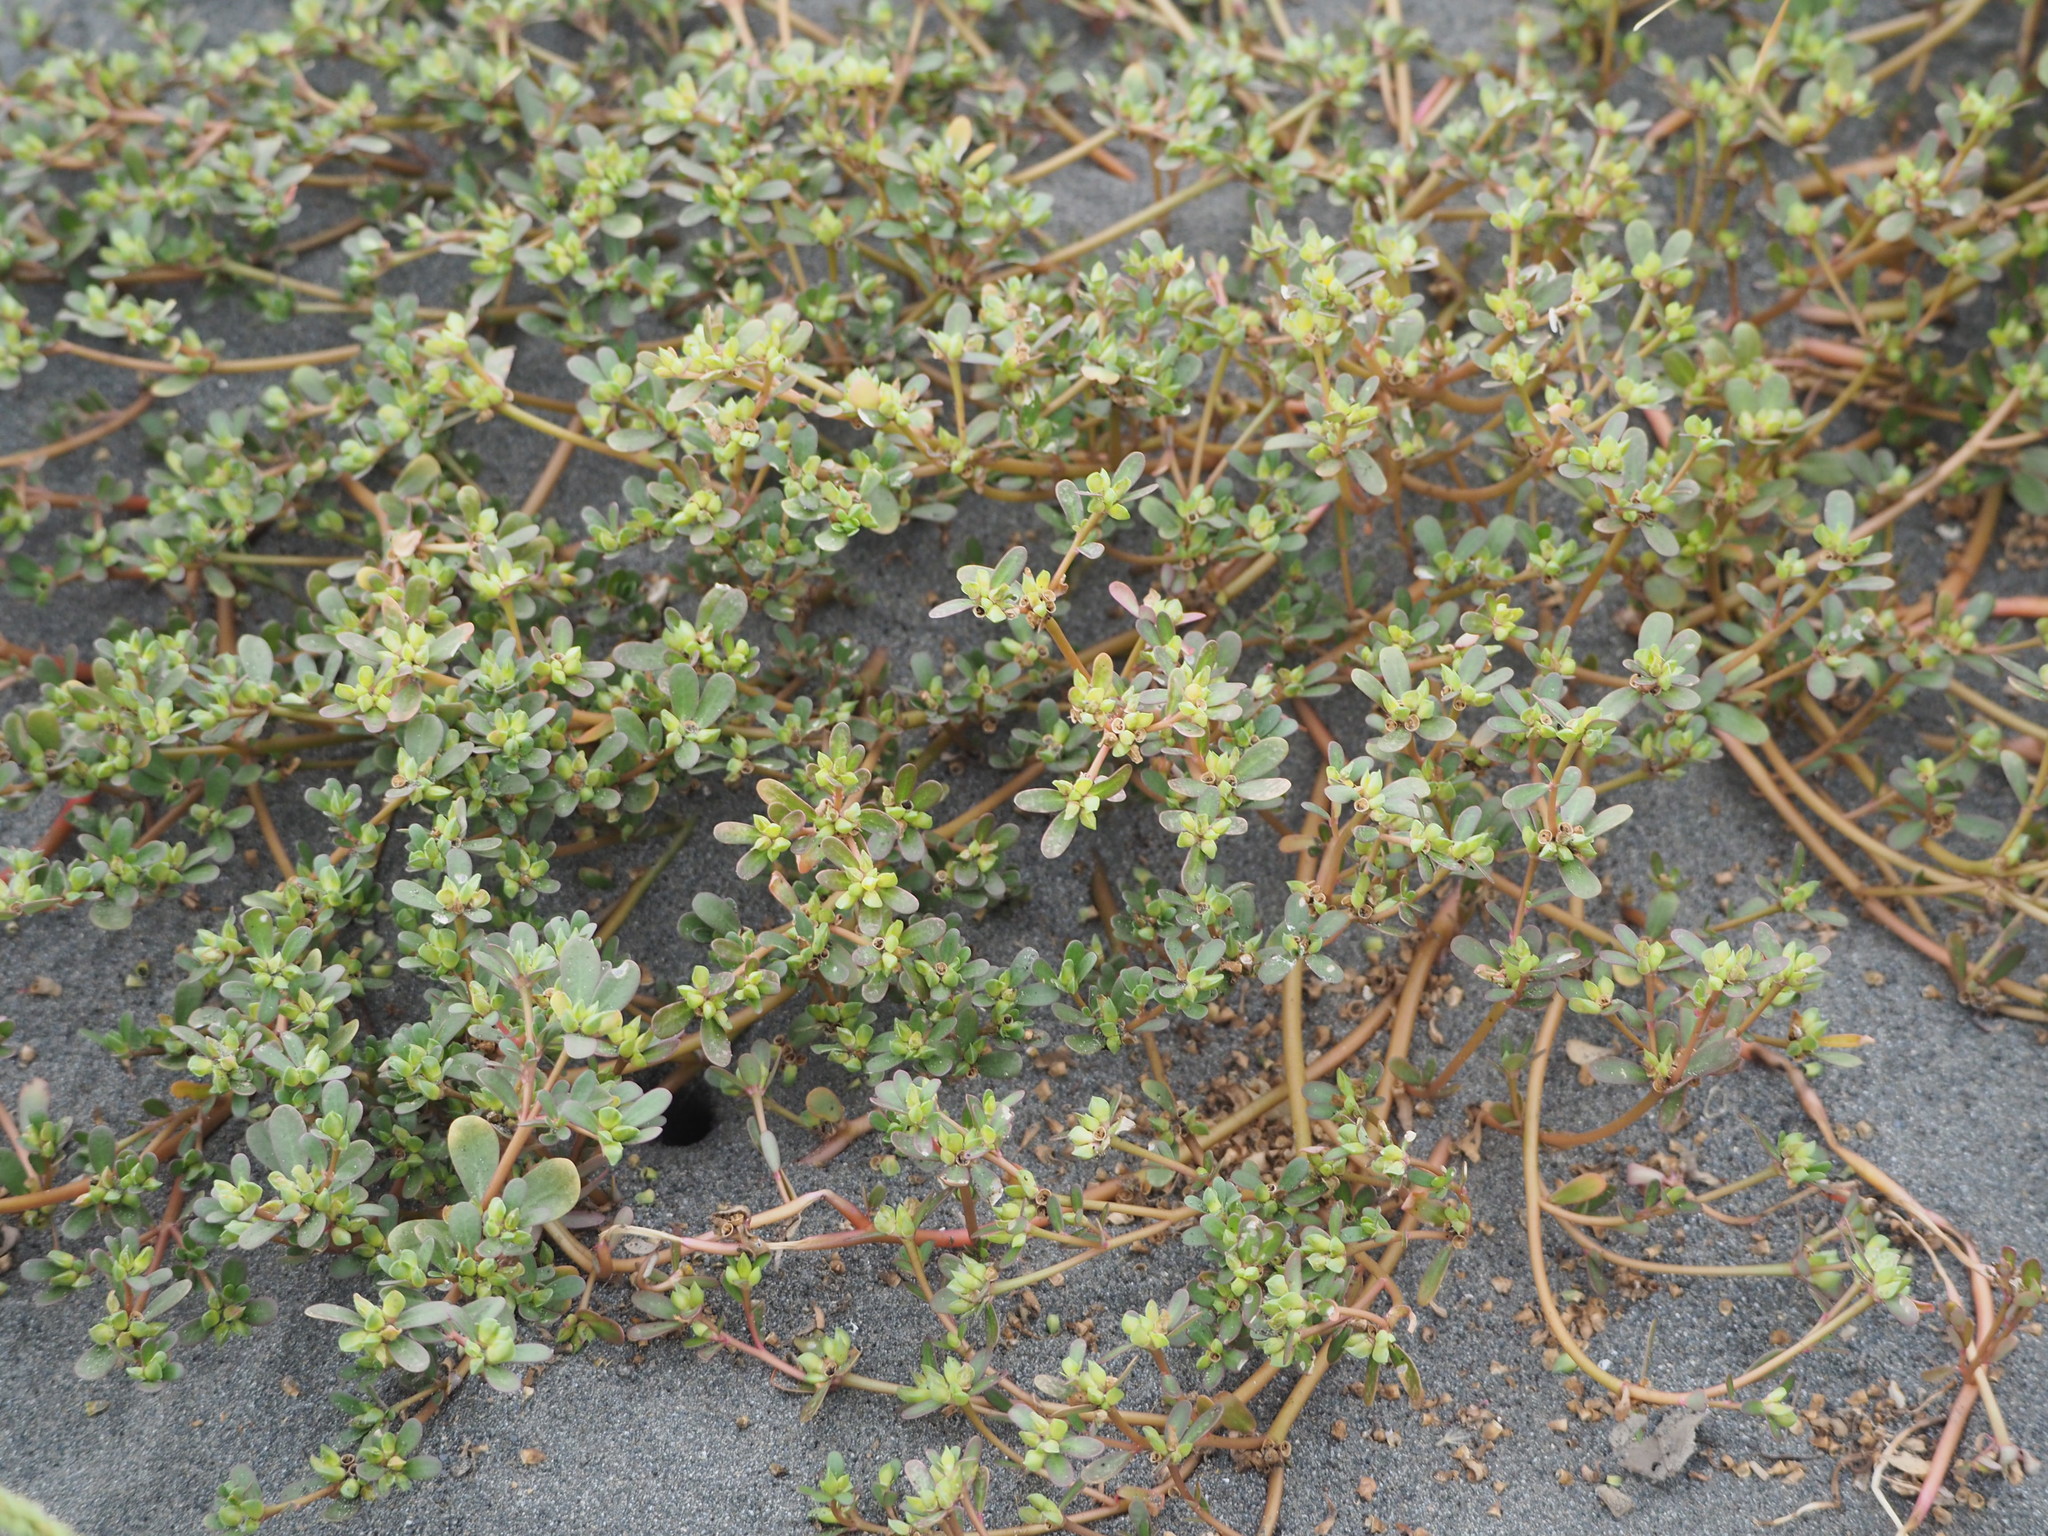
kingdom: Plantae
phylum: Tracheophyta
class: Magnoliopsida
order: Caryophyllales
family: Portulacaceae
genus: Portulaca
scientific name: Portulaca oleracea
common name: Common purslane
